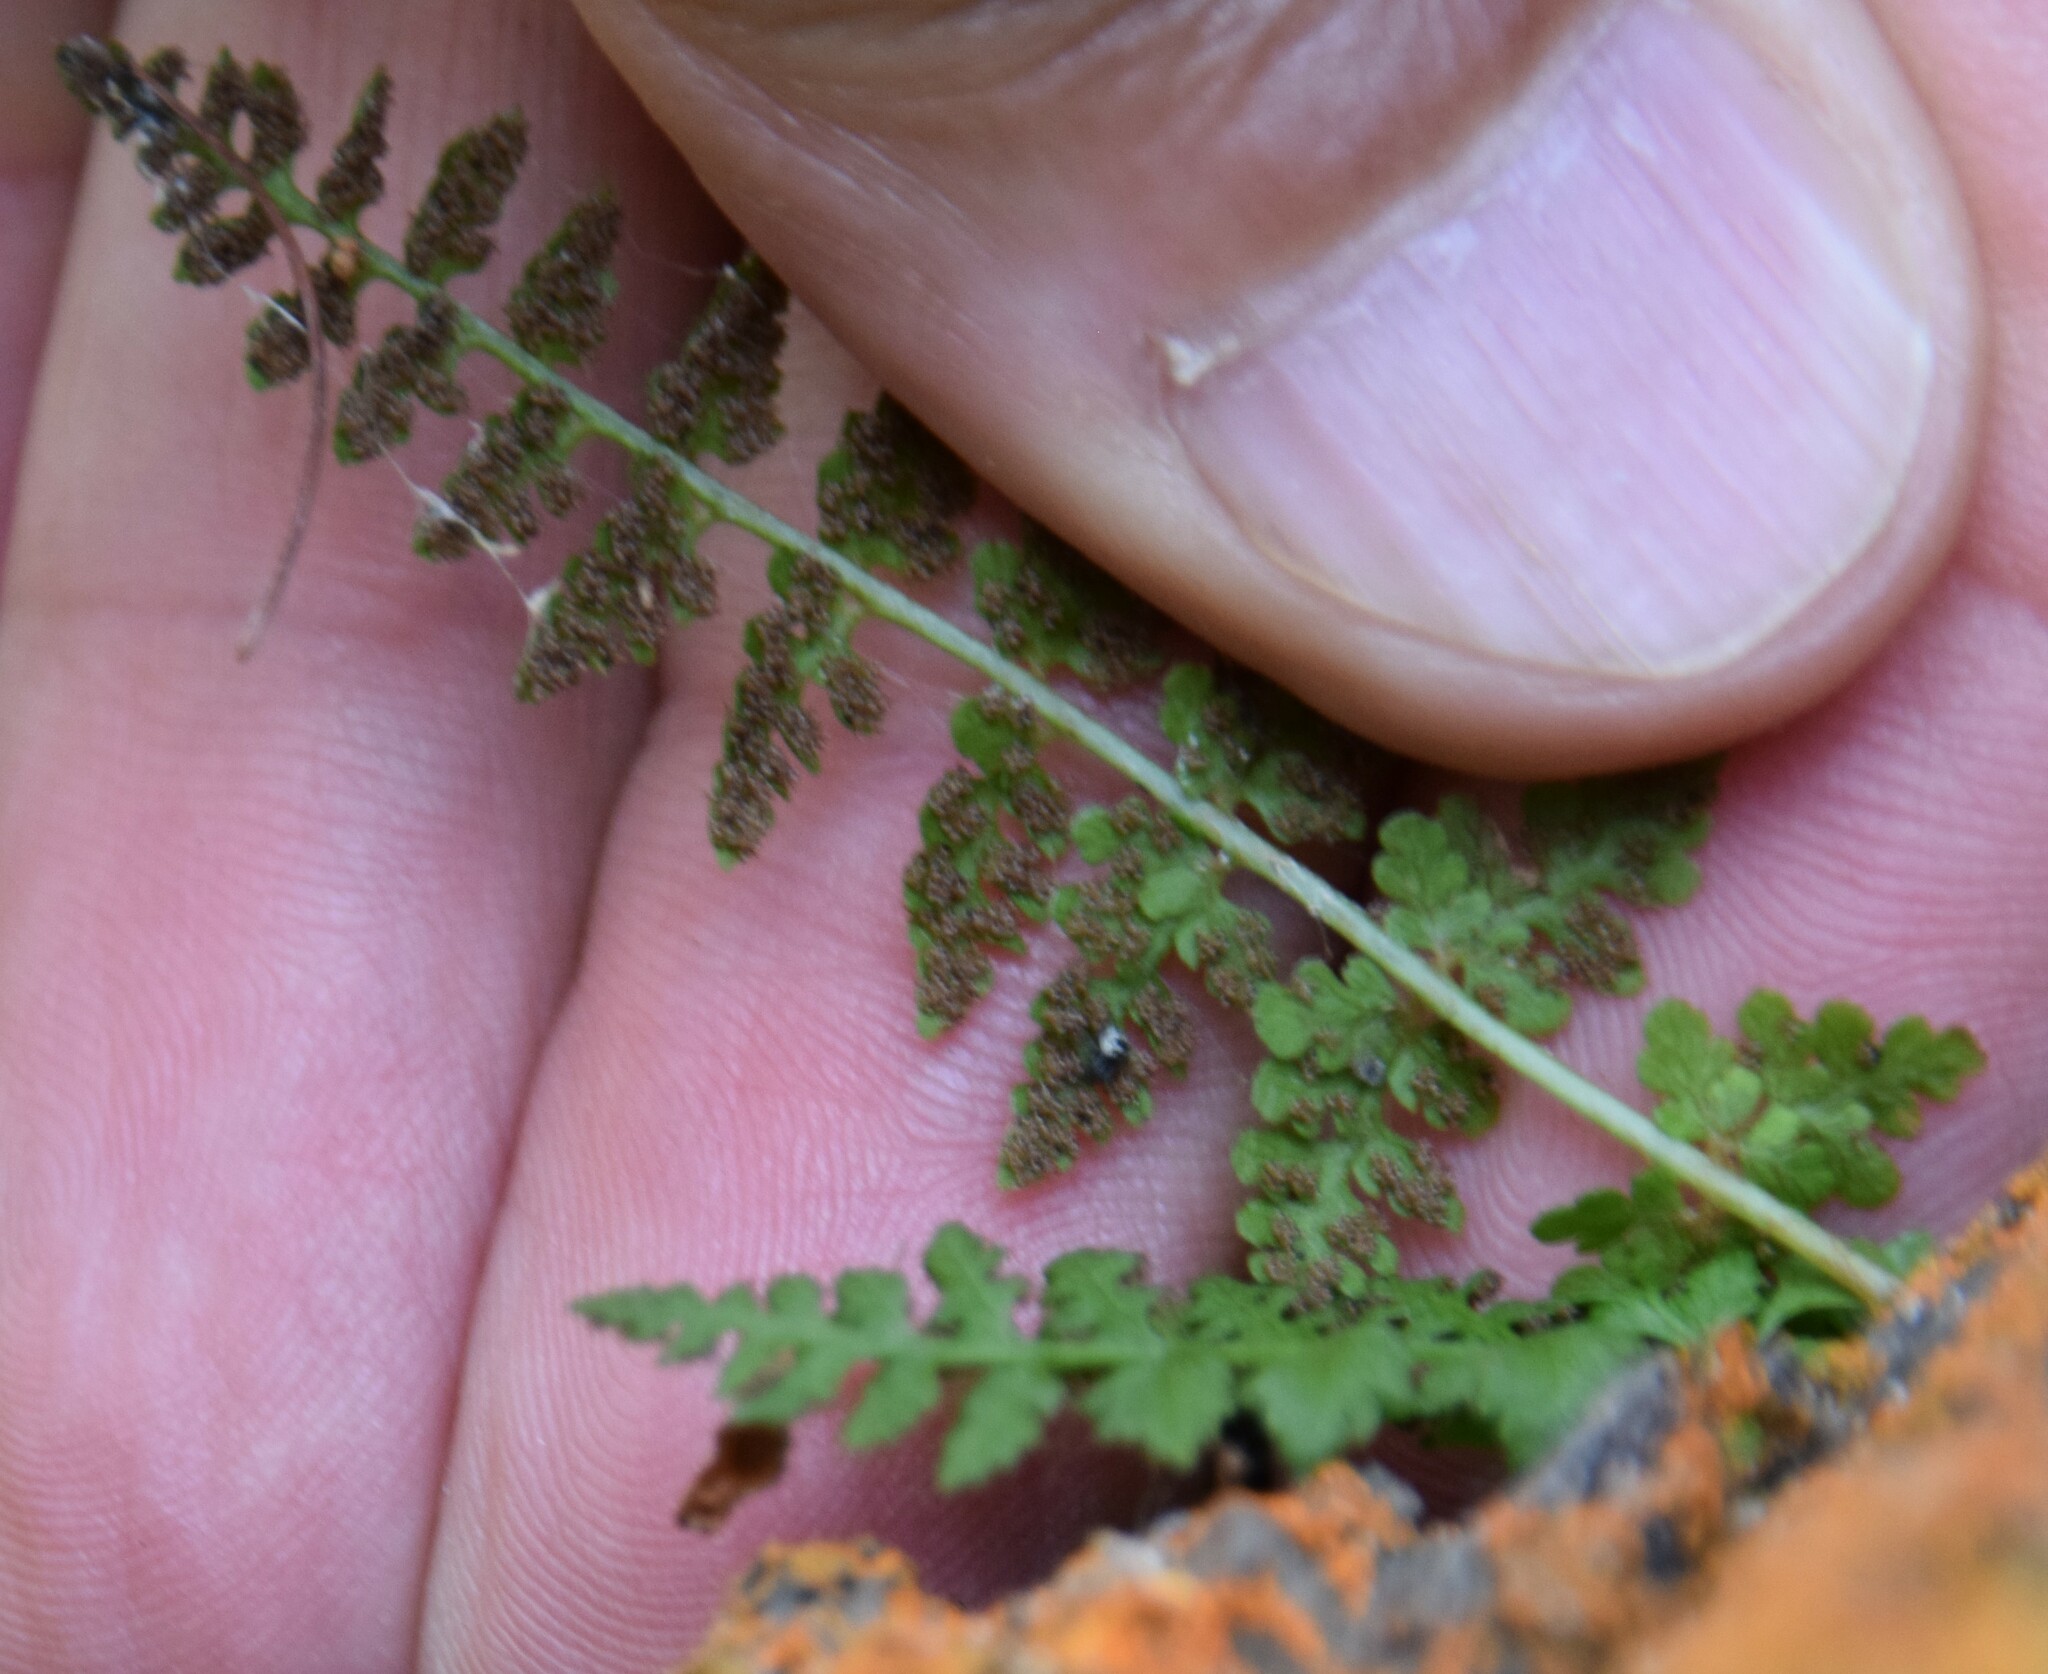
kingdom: Plantae
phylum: Tracheophyta
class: Polypodiopsida
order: Polypodiales
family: Woodsiaceae
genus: Woodsia
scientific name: Woodsia ilvensis
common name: Fragrant woodsia
